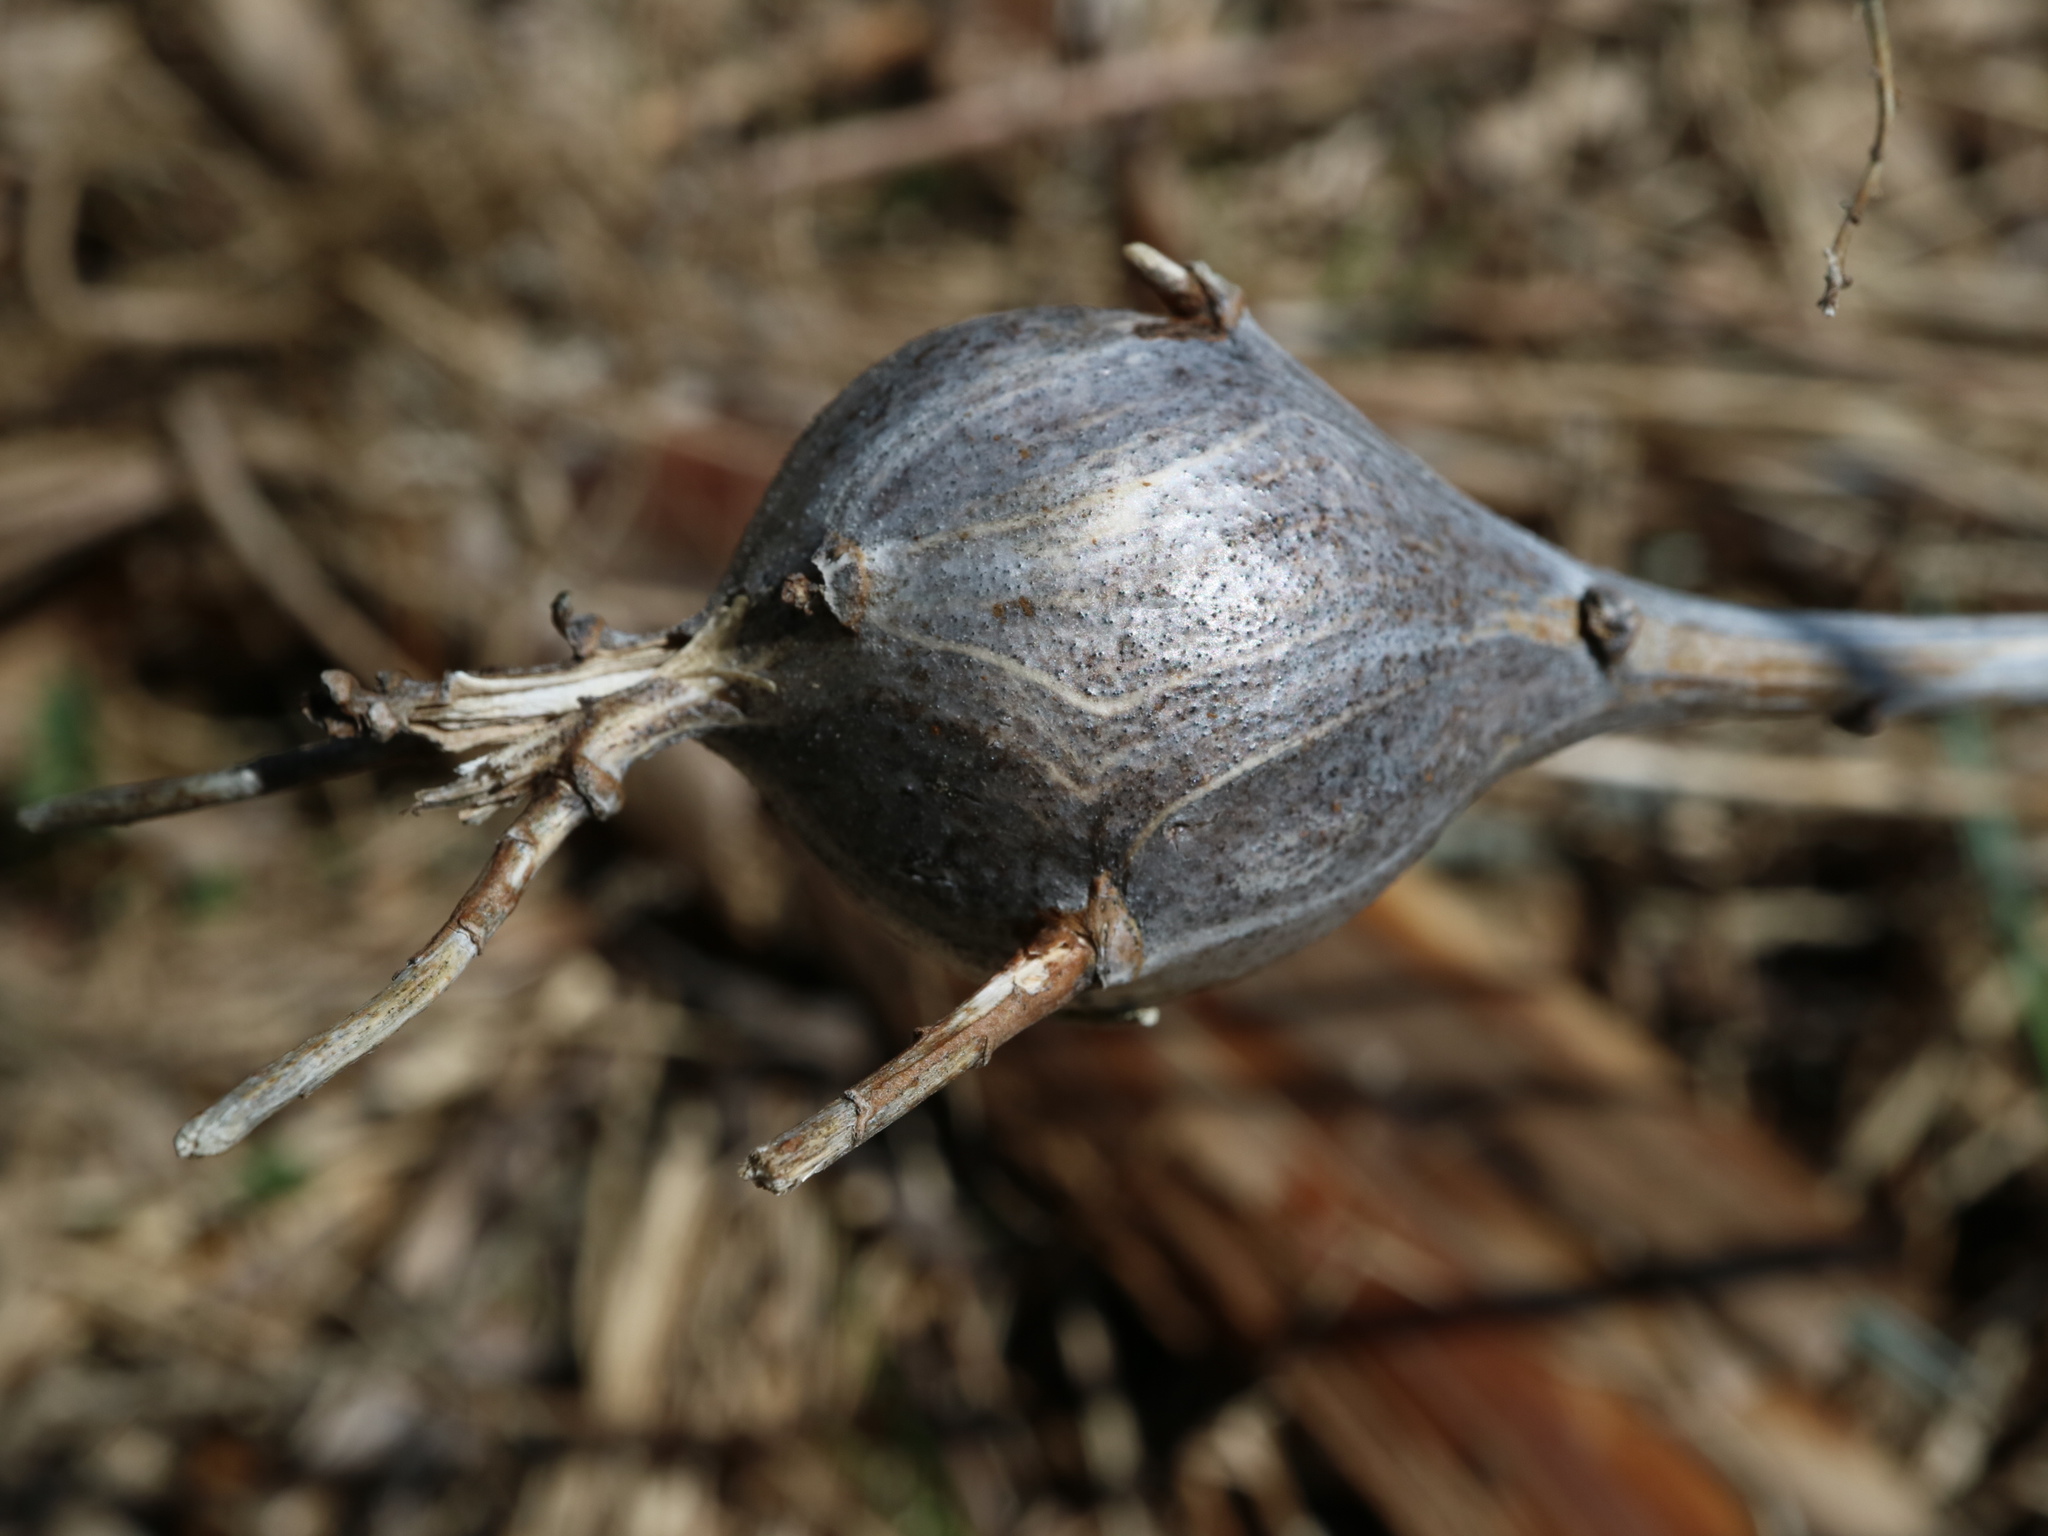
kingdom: Animalia
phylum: Arthropoda
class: Insecta
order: Diptera
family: Tephritidae
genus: Eurosta
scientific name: Eurosta solidaginis
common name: Goldenrod gall fly
